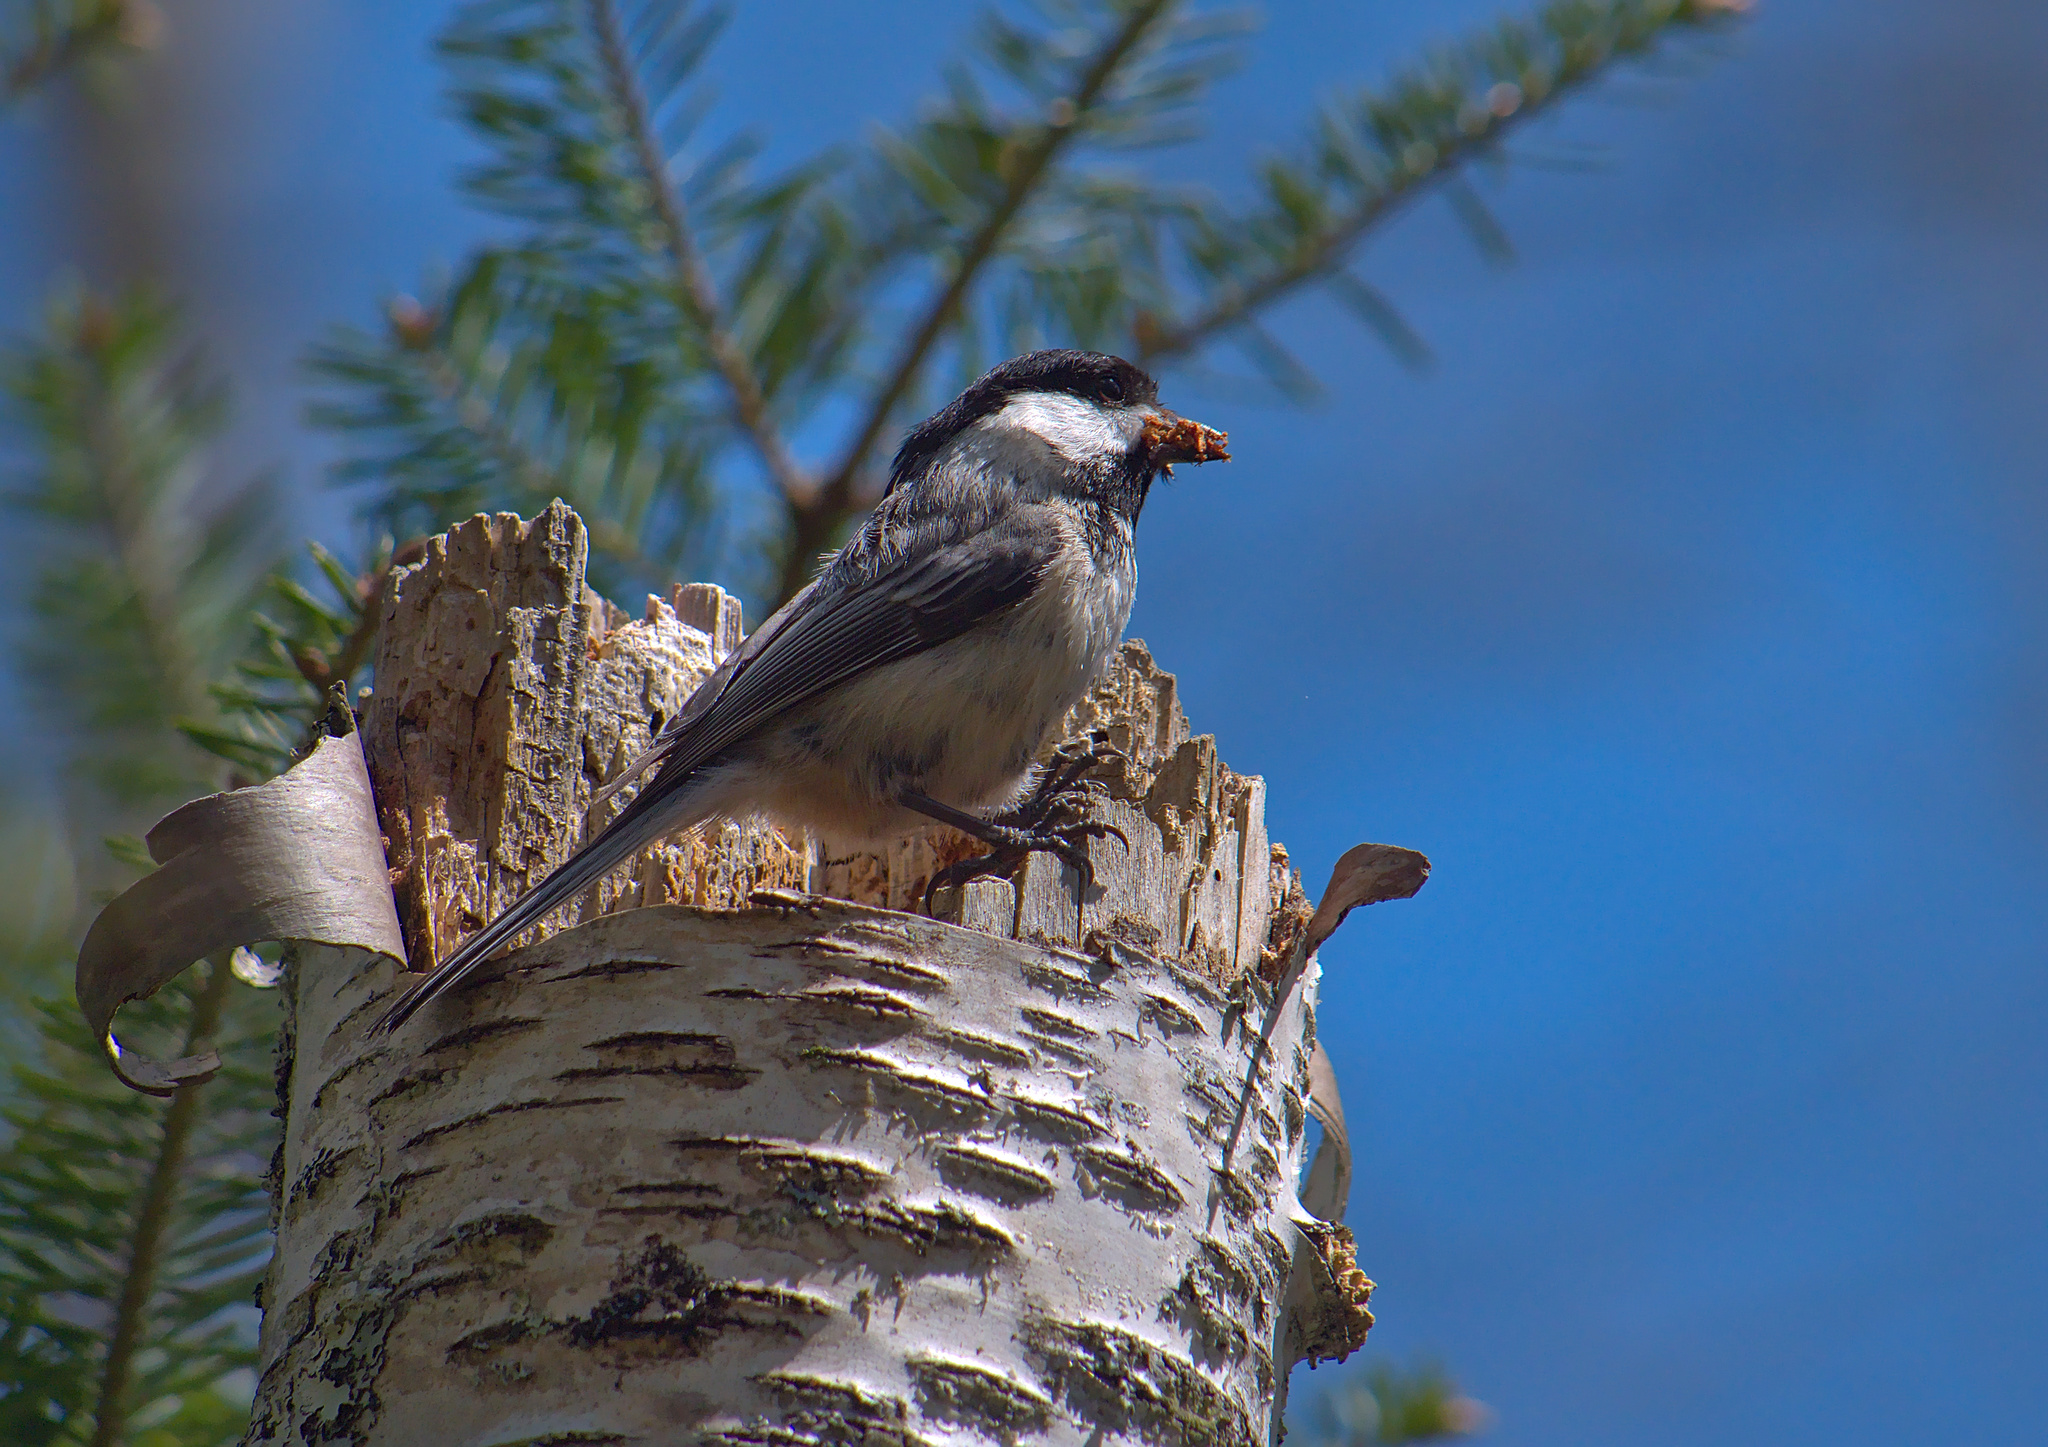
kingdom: Animalia
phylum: Chordata
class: Aves
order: Passeriformes
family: Paridae
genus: Poecile
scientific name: Poecile atricapillus
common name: Black-capped chickadee
